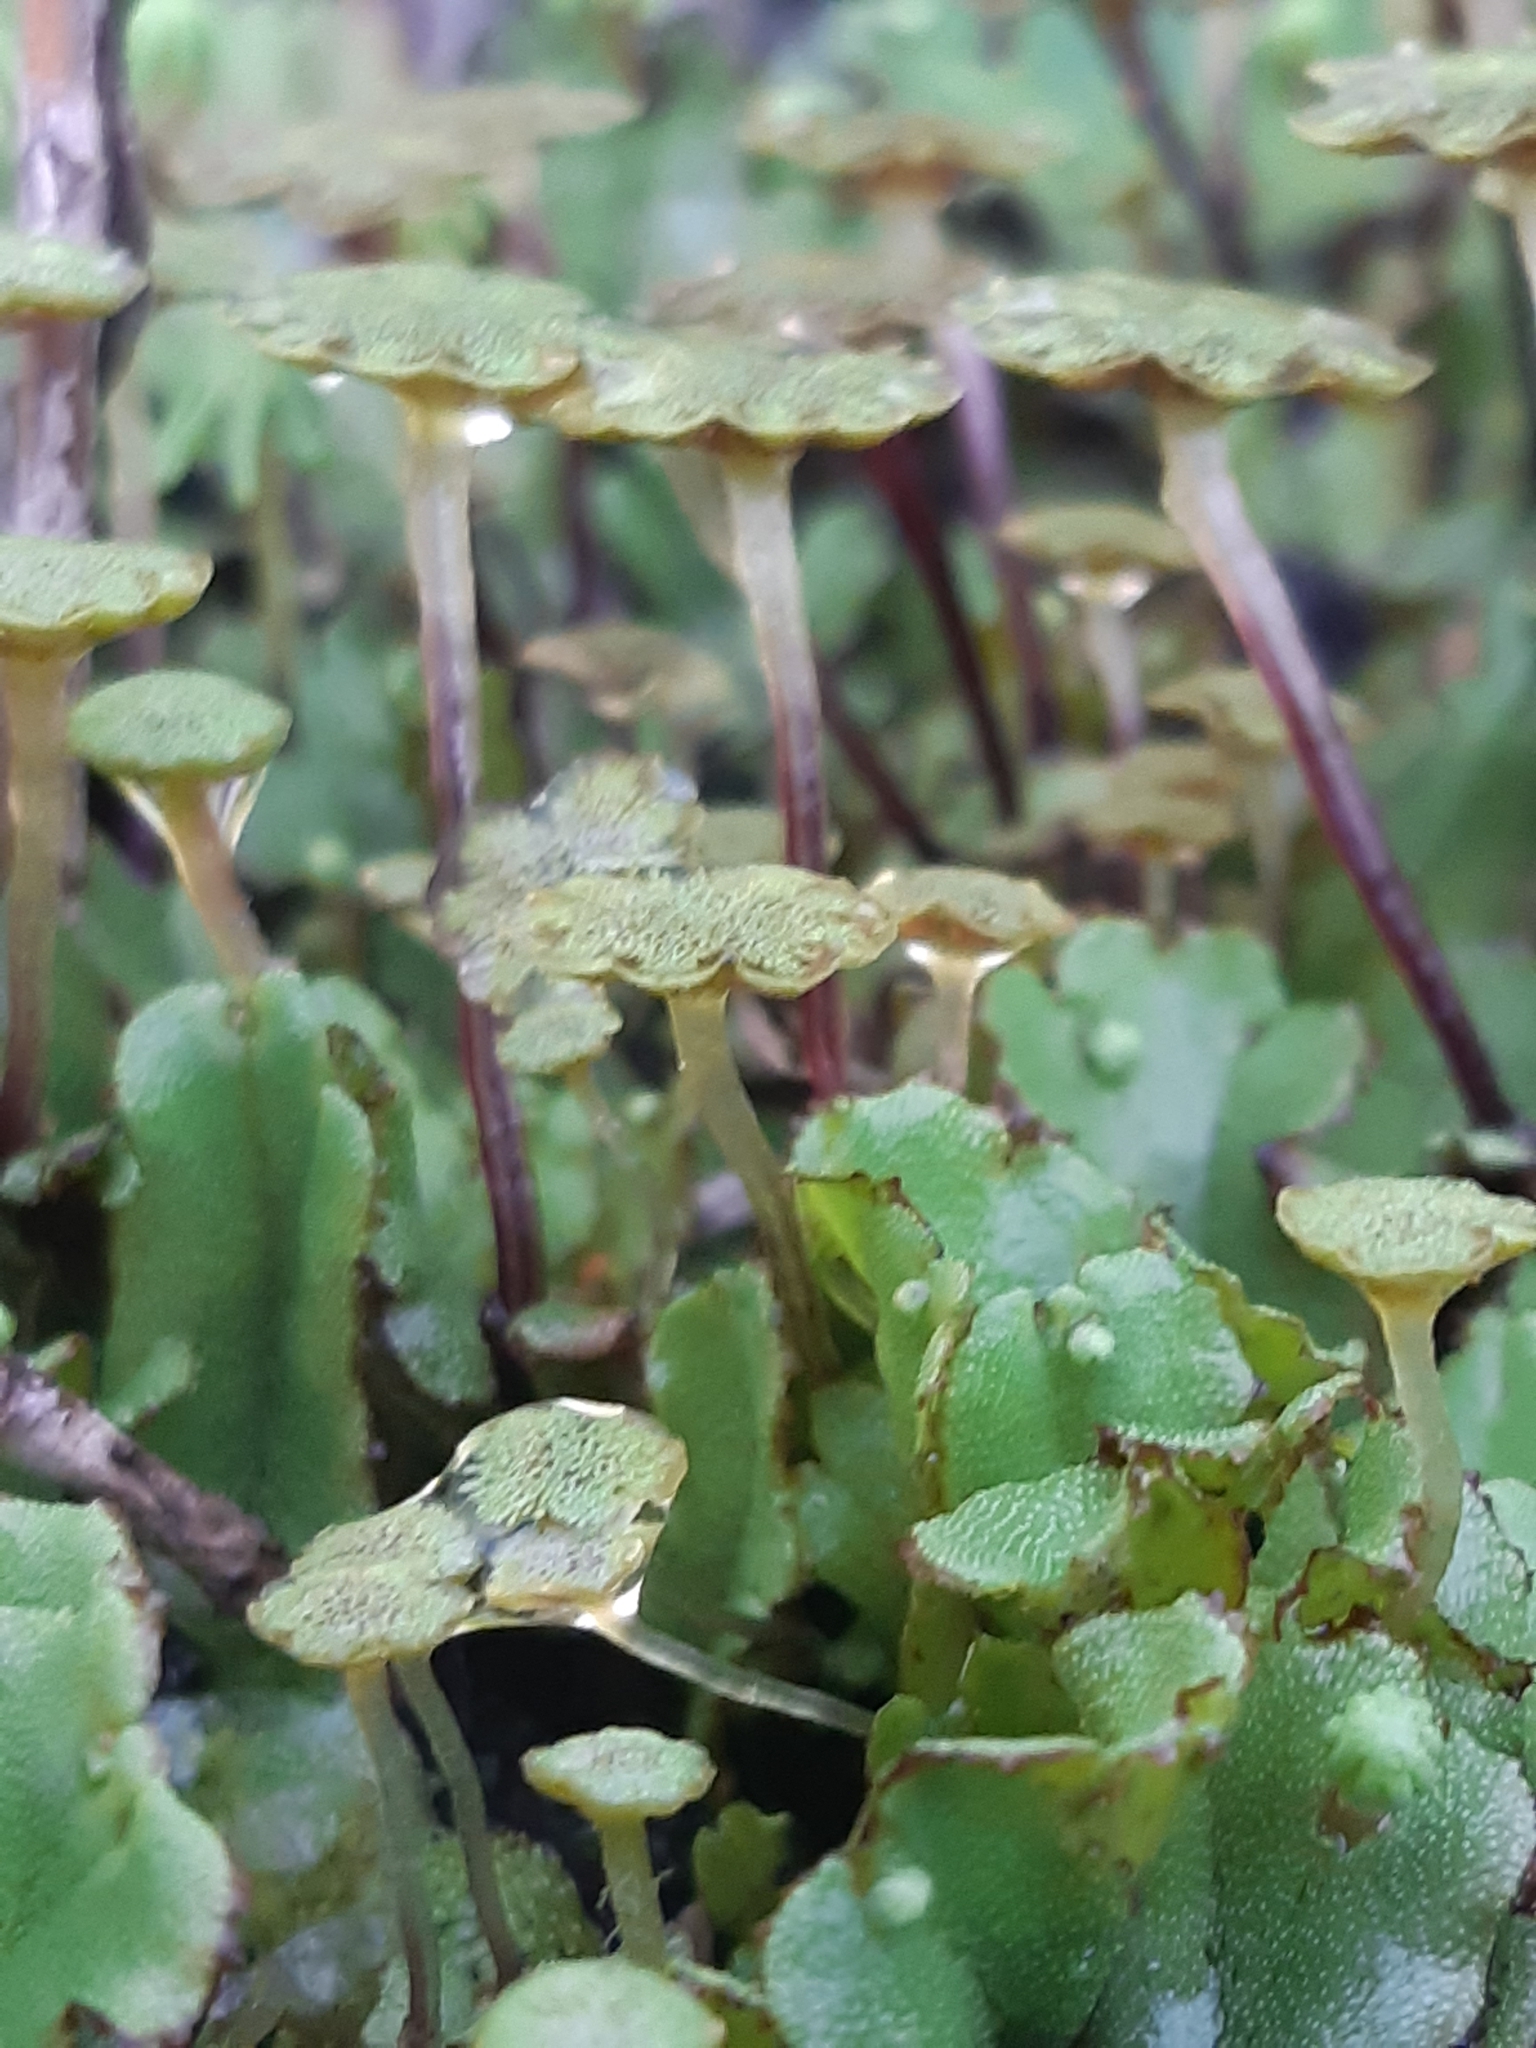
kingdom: Plantae
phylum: Marchantiophyta
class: Marchantiopsida
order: Marchantiales
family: Marchantiaceae
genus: Marchantia
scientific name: Marchantia polymorpha
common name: Common liverwort
